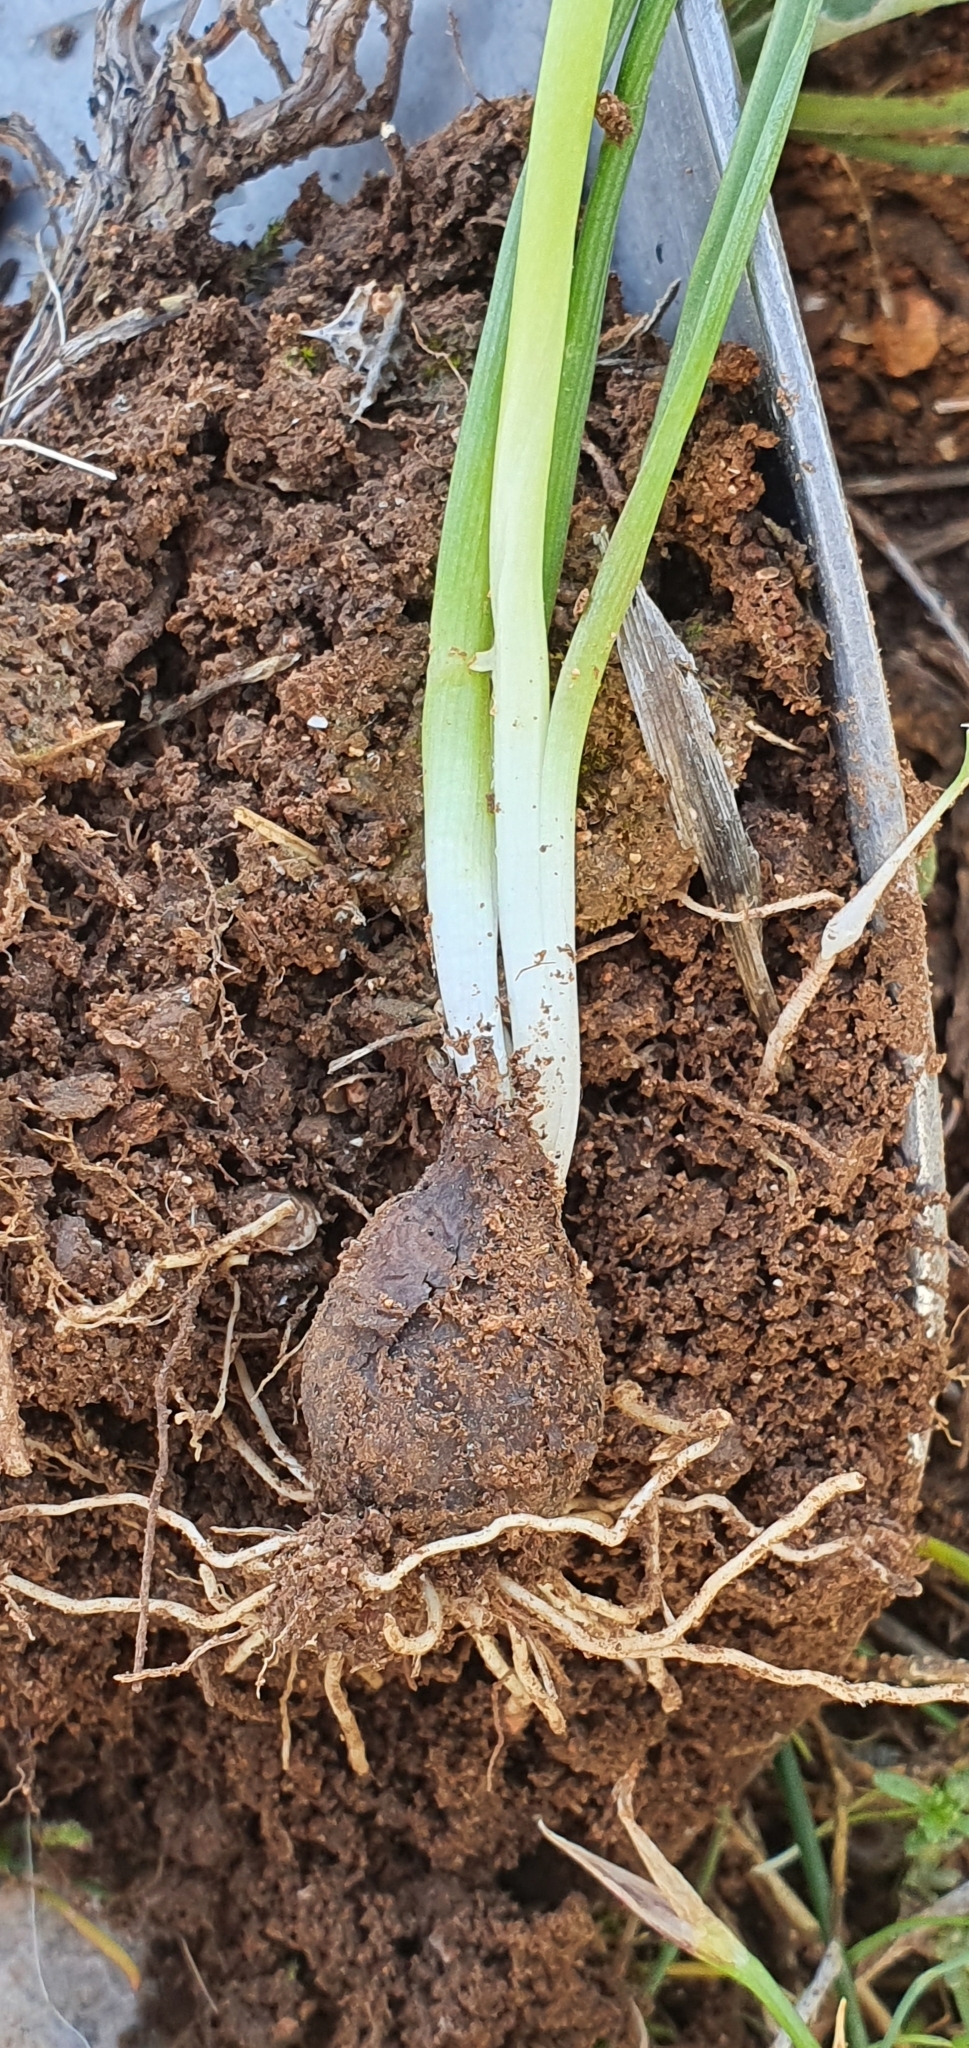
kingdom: Plantae
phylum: Tracheophyta
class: Liliopsida
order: Asparagales
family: Asparagaceae
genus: Muscari
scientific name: Muscari baeticum
